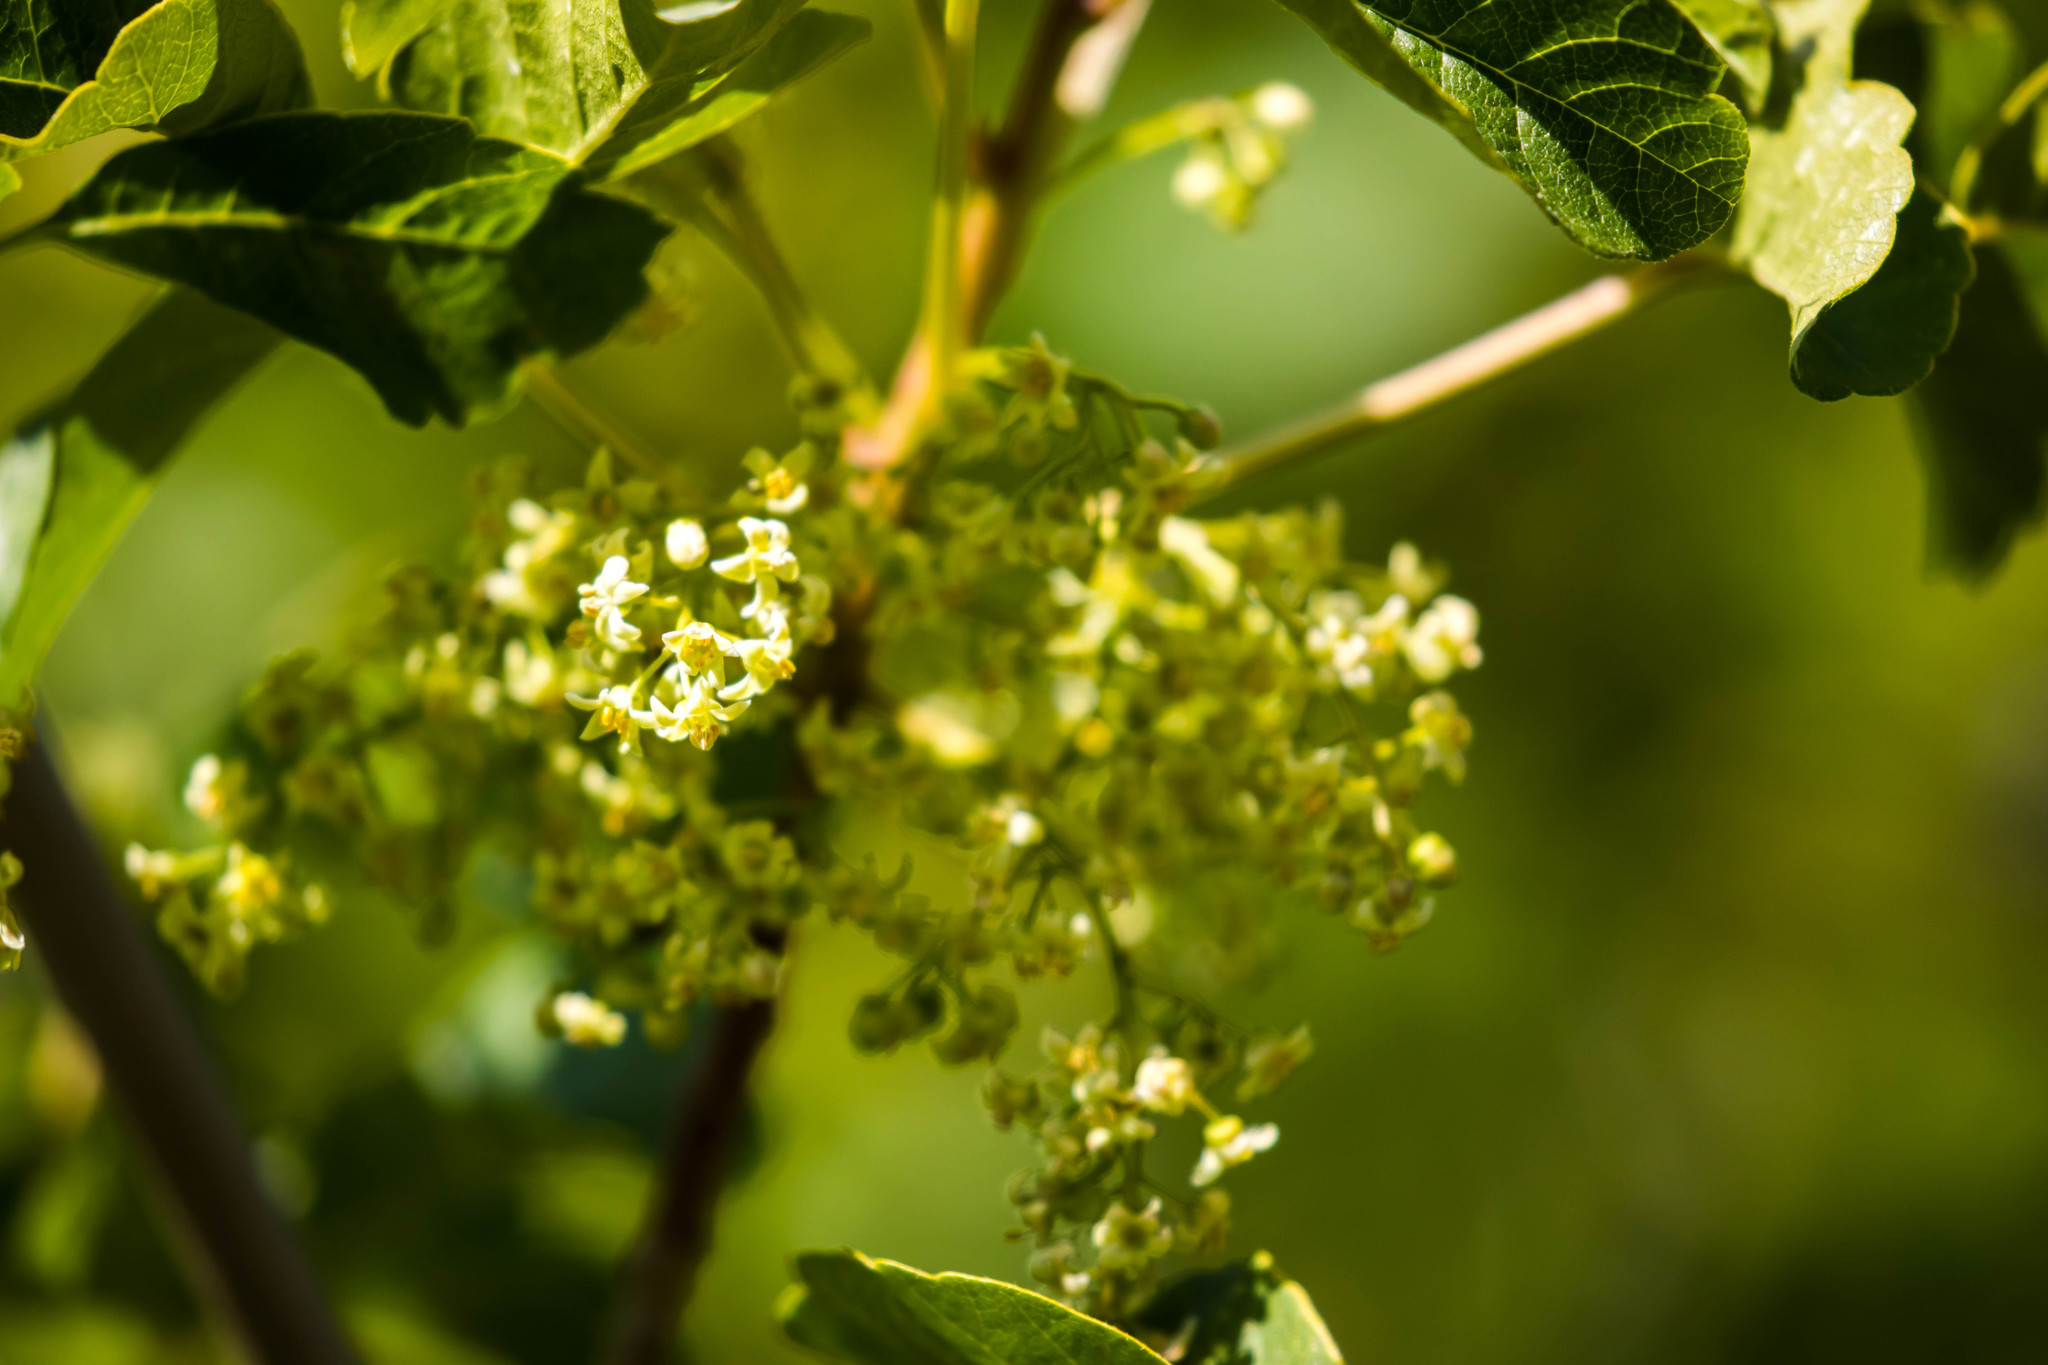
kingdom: Plantae
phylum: Tracheophyta
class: Magnoliopsida
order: Sapindales
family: Anacardiaceae
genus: Toxicodendron
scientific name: Toxicodendron diversilobum
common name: Pacific poison-oak
